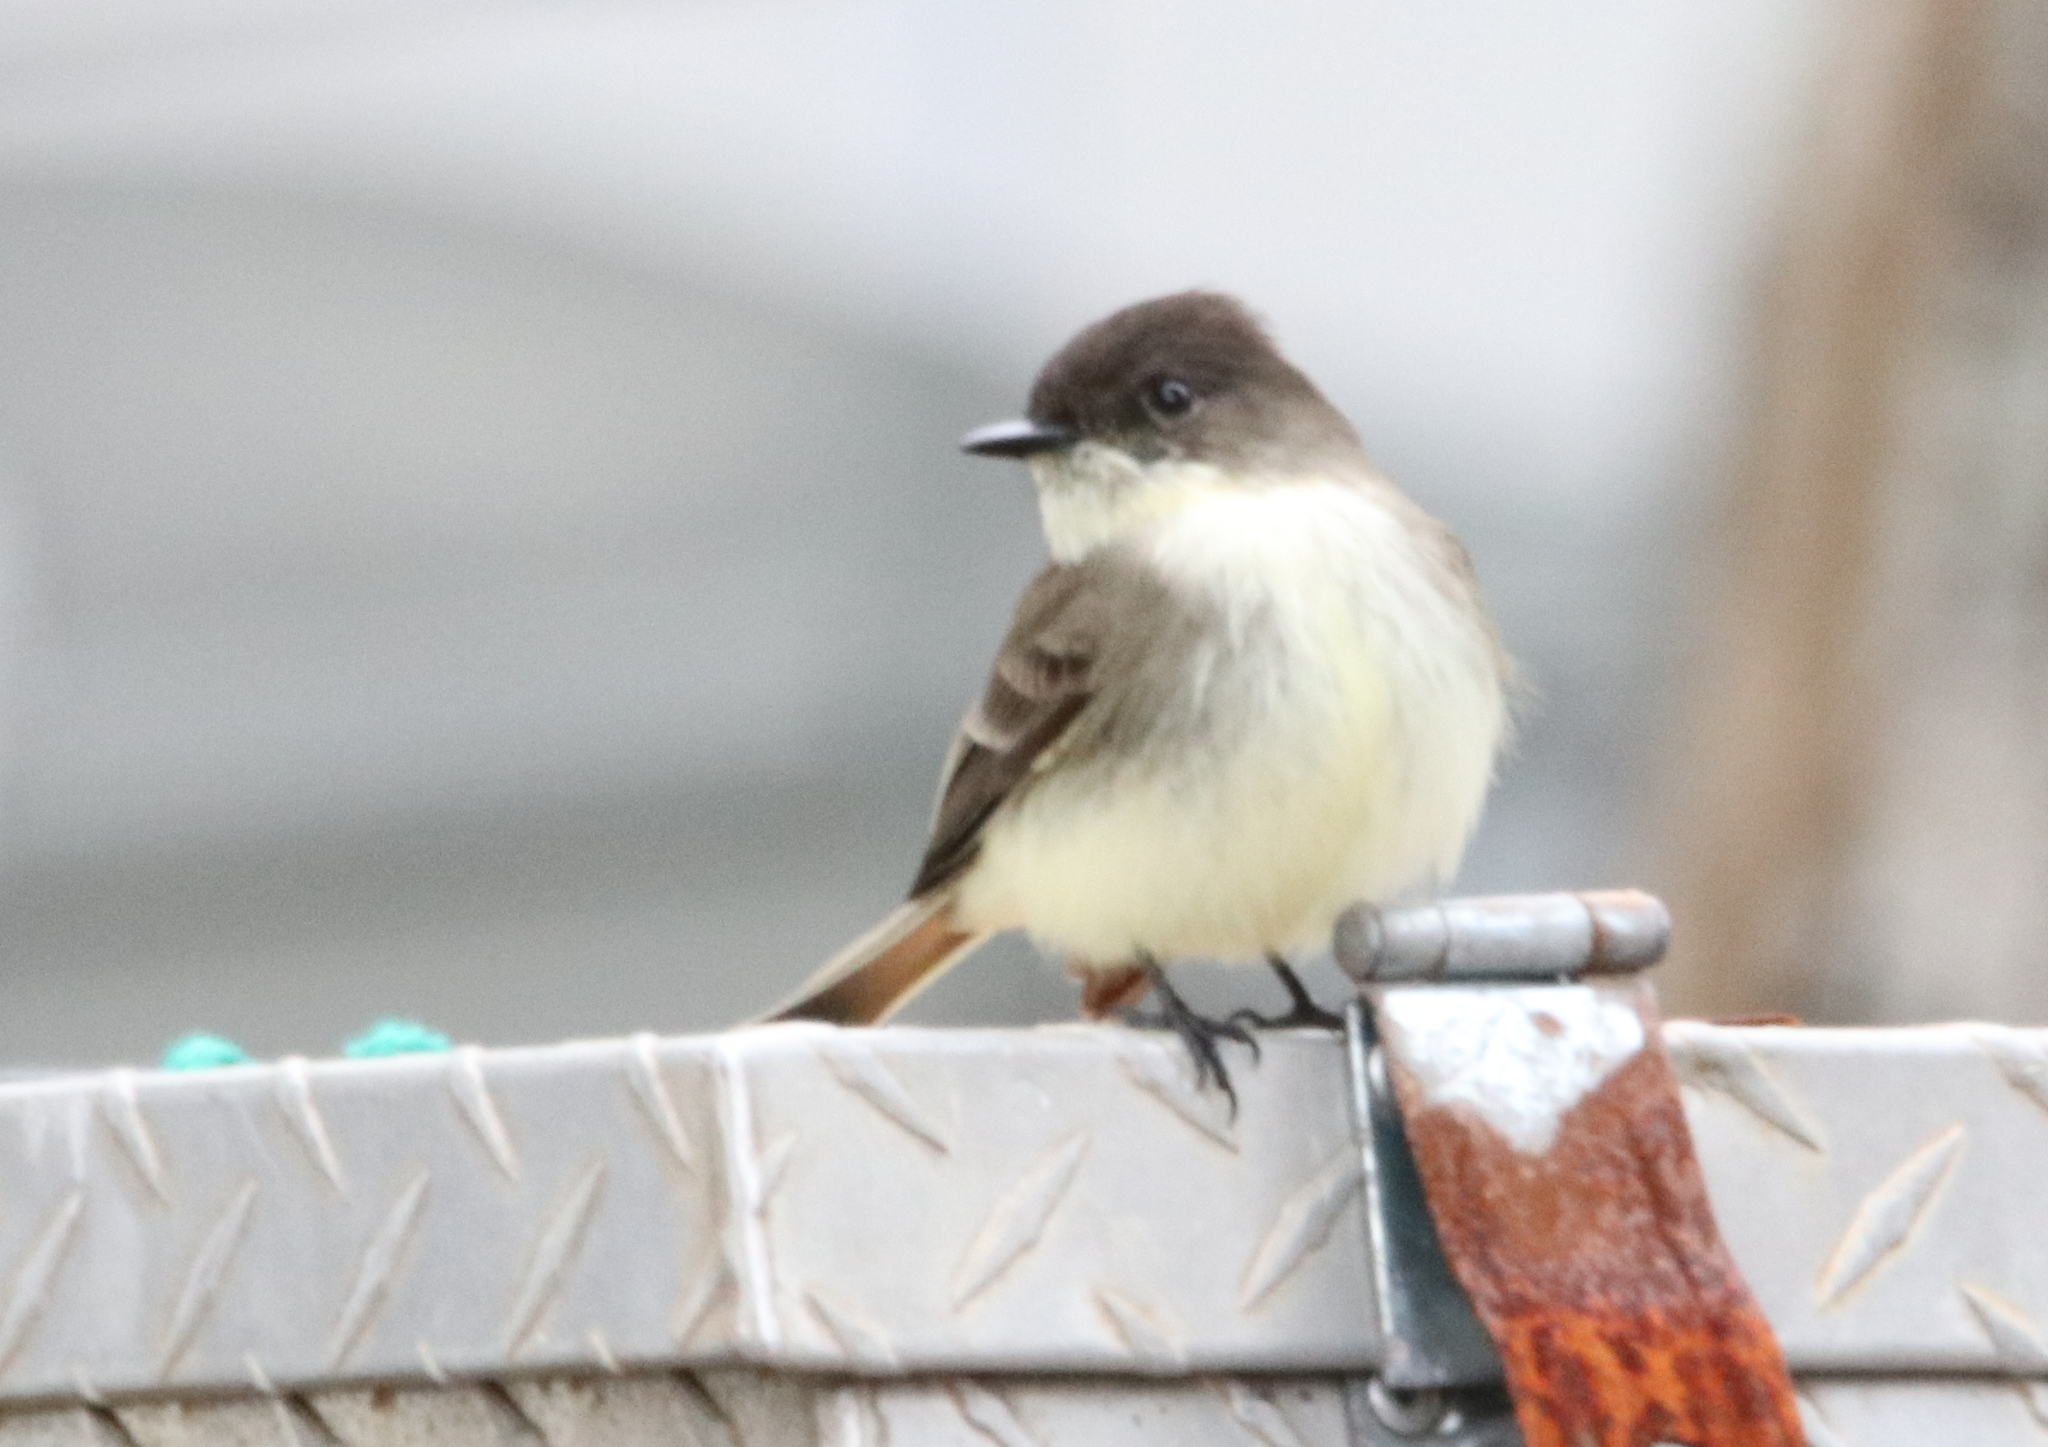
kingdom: Animalia
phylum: Chordata
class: Aves
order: Passeriformes
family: Tyrannidae
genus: Sayornis
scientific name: Sayornis phoebe
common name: Eastern phoebe
